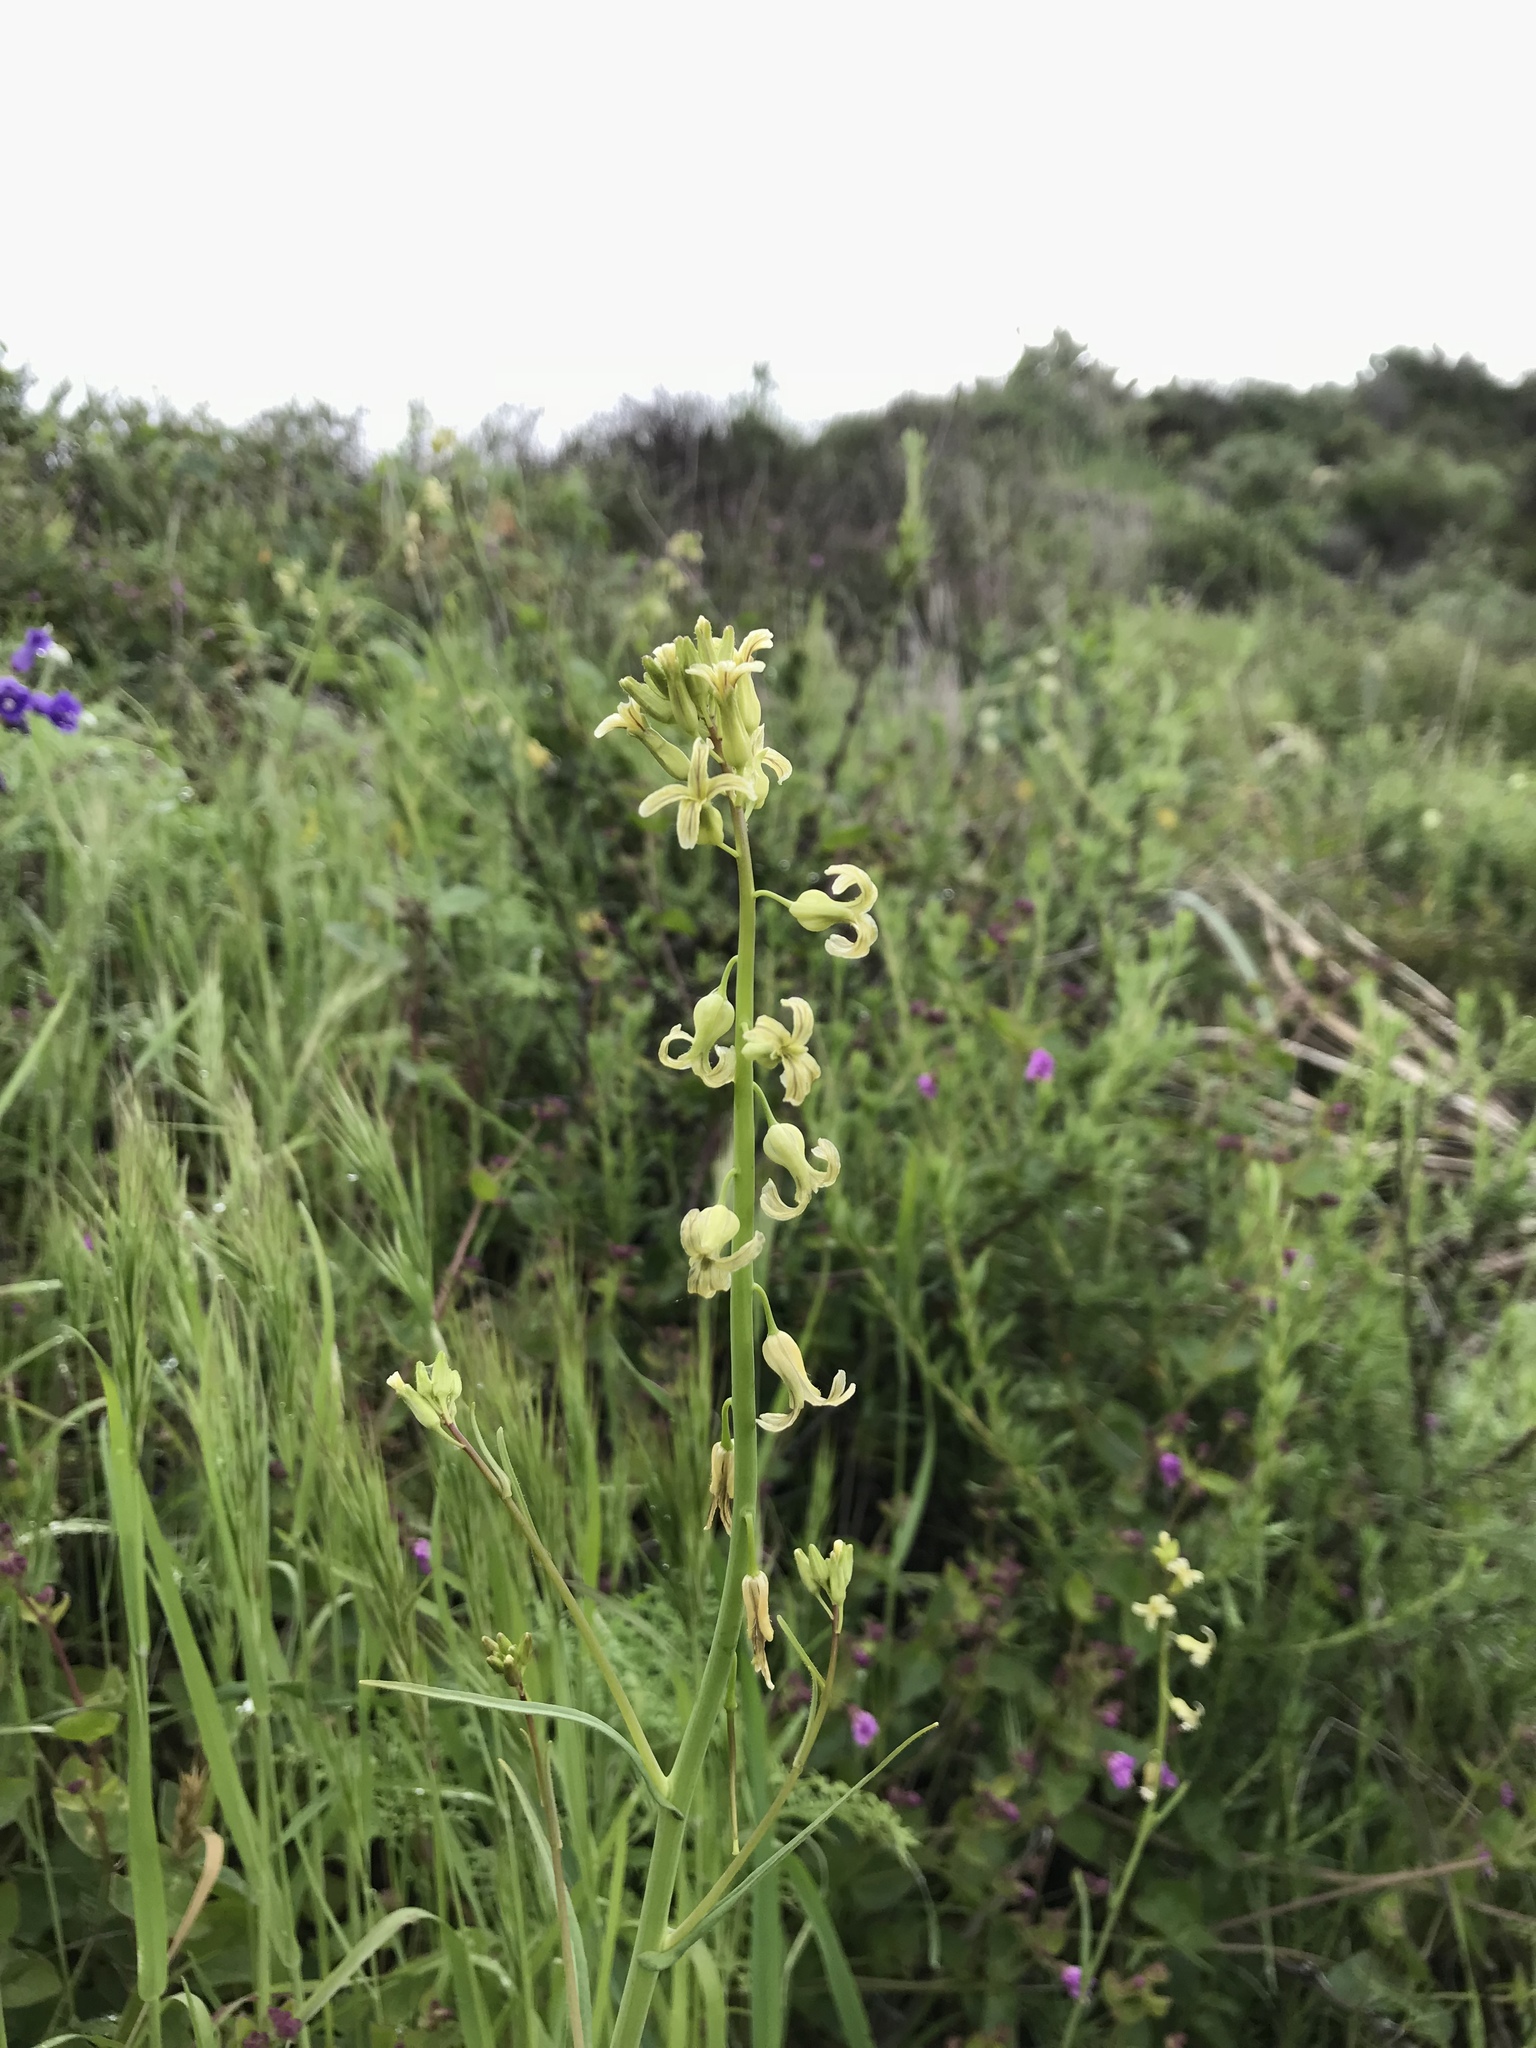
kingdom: Plantae
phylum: Tracheophyta
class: Magnoliopsida
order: Brassicales
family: Brassicaceae
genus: Streptanthus
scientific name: Streptanthus heterophyllus
